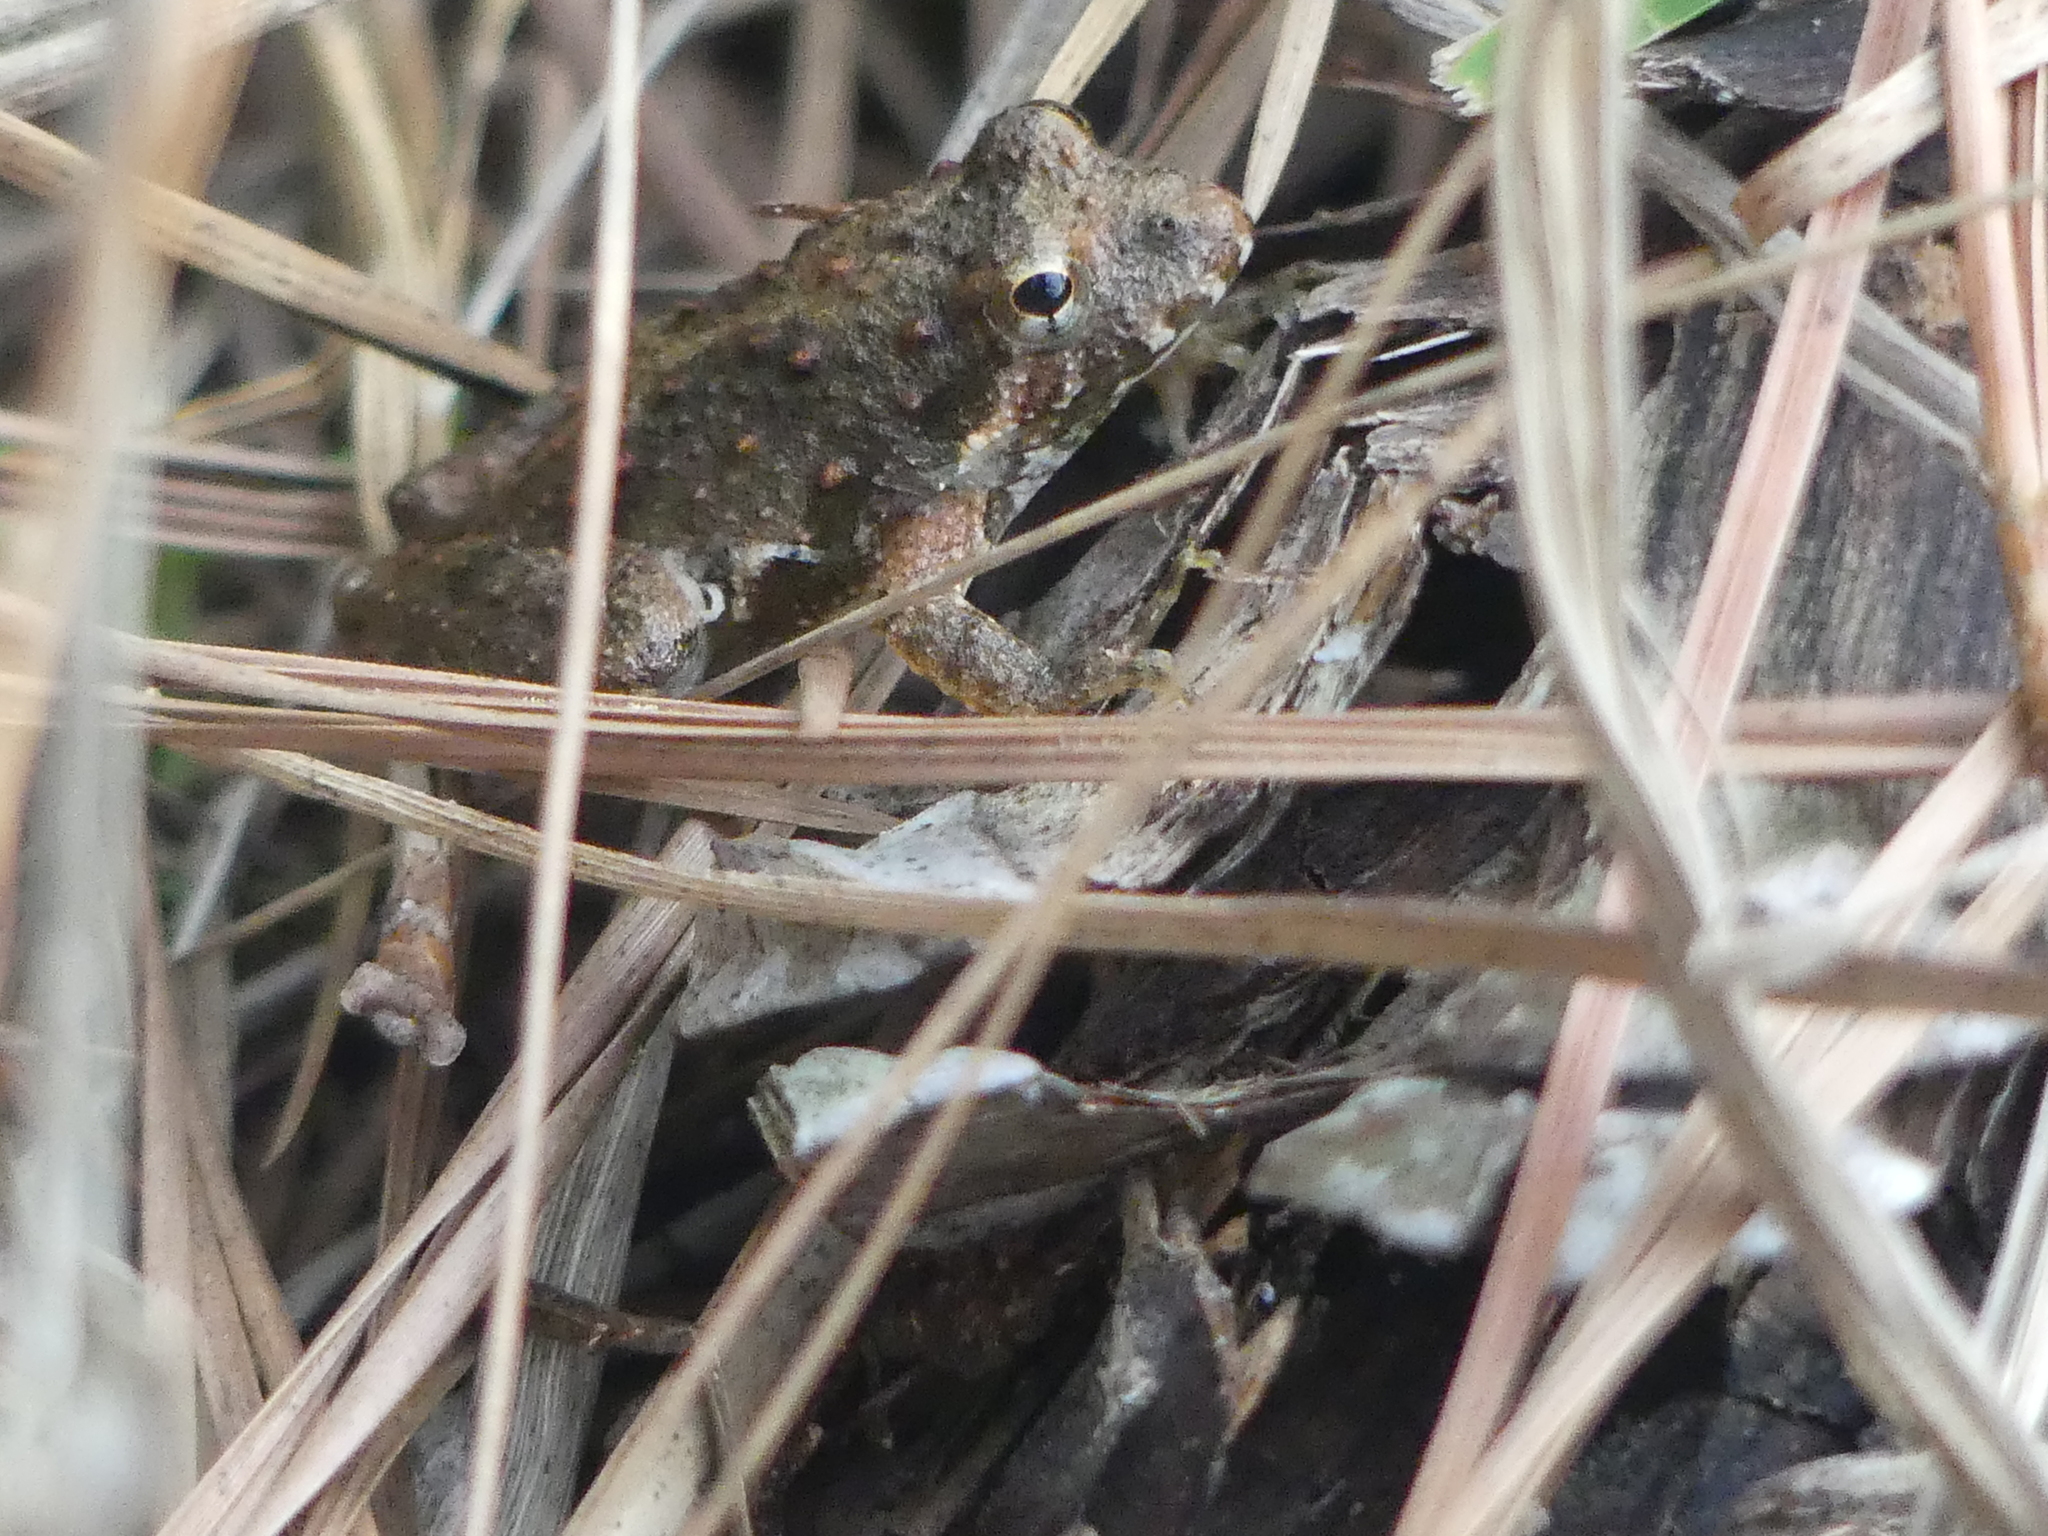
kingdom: Animalia
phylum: Chordata
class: Amphibia
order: Anura
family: Hylidae
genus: Acris
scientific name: Acris blanchardi
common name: Blanchard's cricket frog
